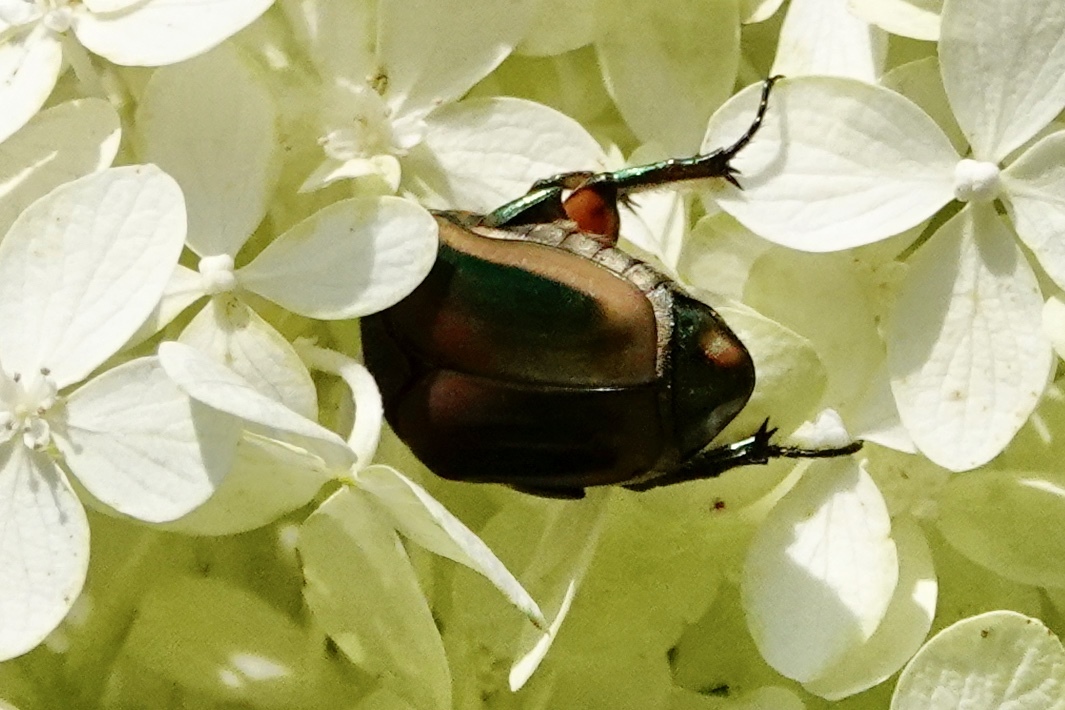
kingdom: Animalia
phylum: Arthropoda
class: Insecta
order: Coleoptera
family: Scarabaeidae
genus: Cotinis
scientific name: Cotinis nitida
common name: Common green june beetle
